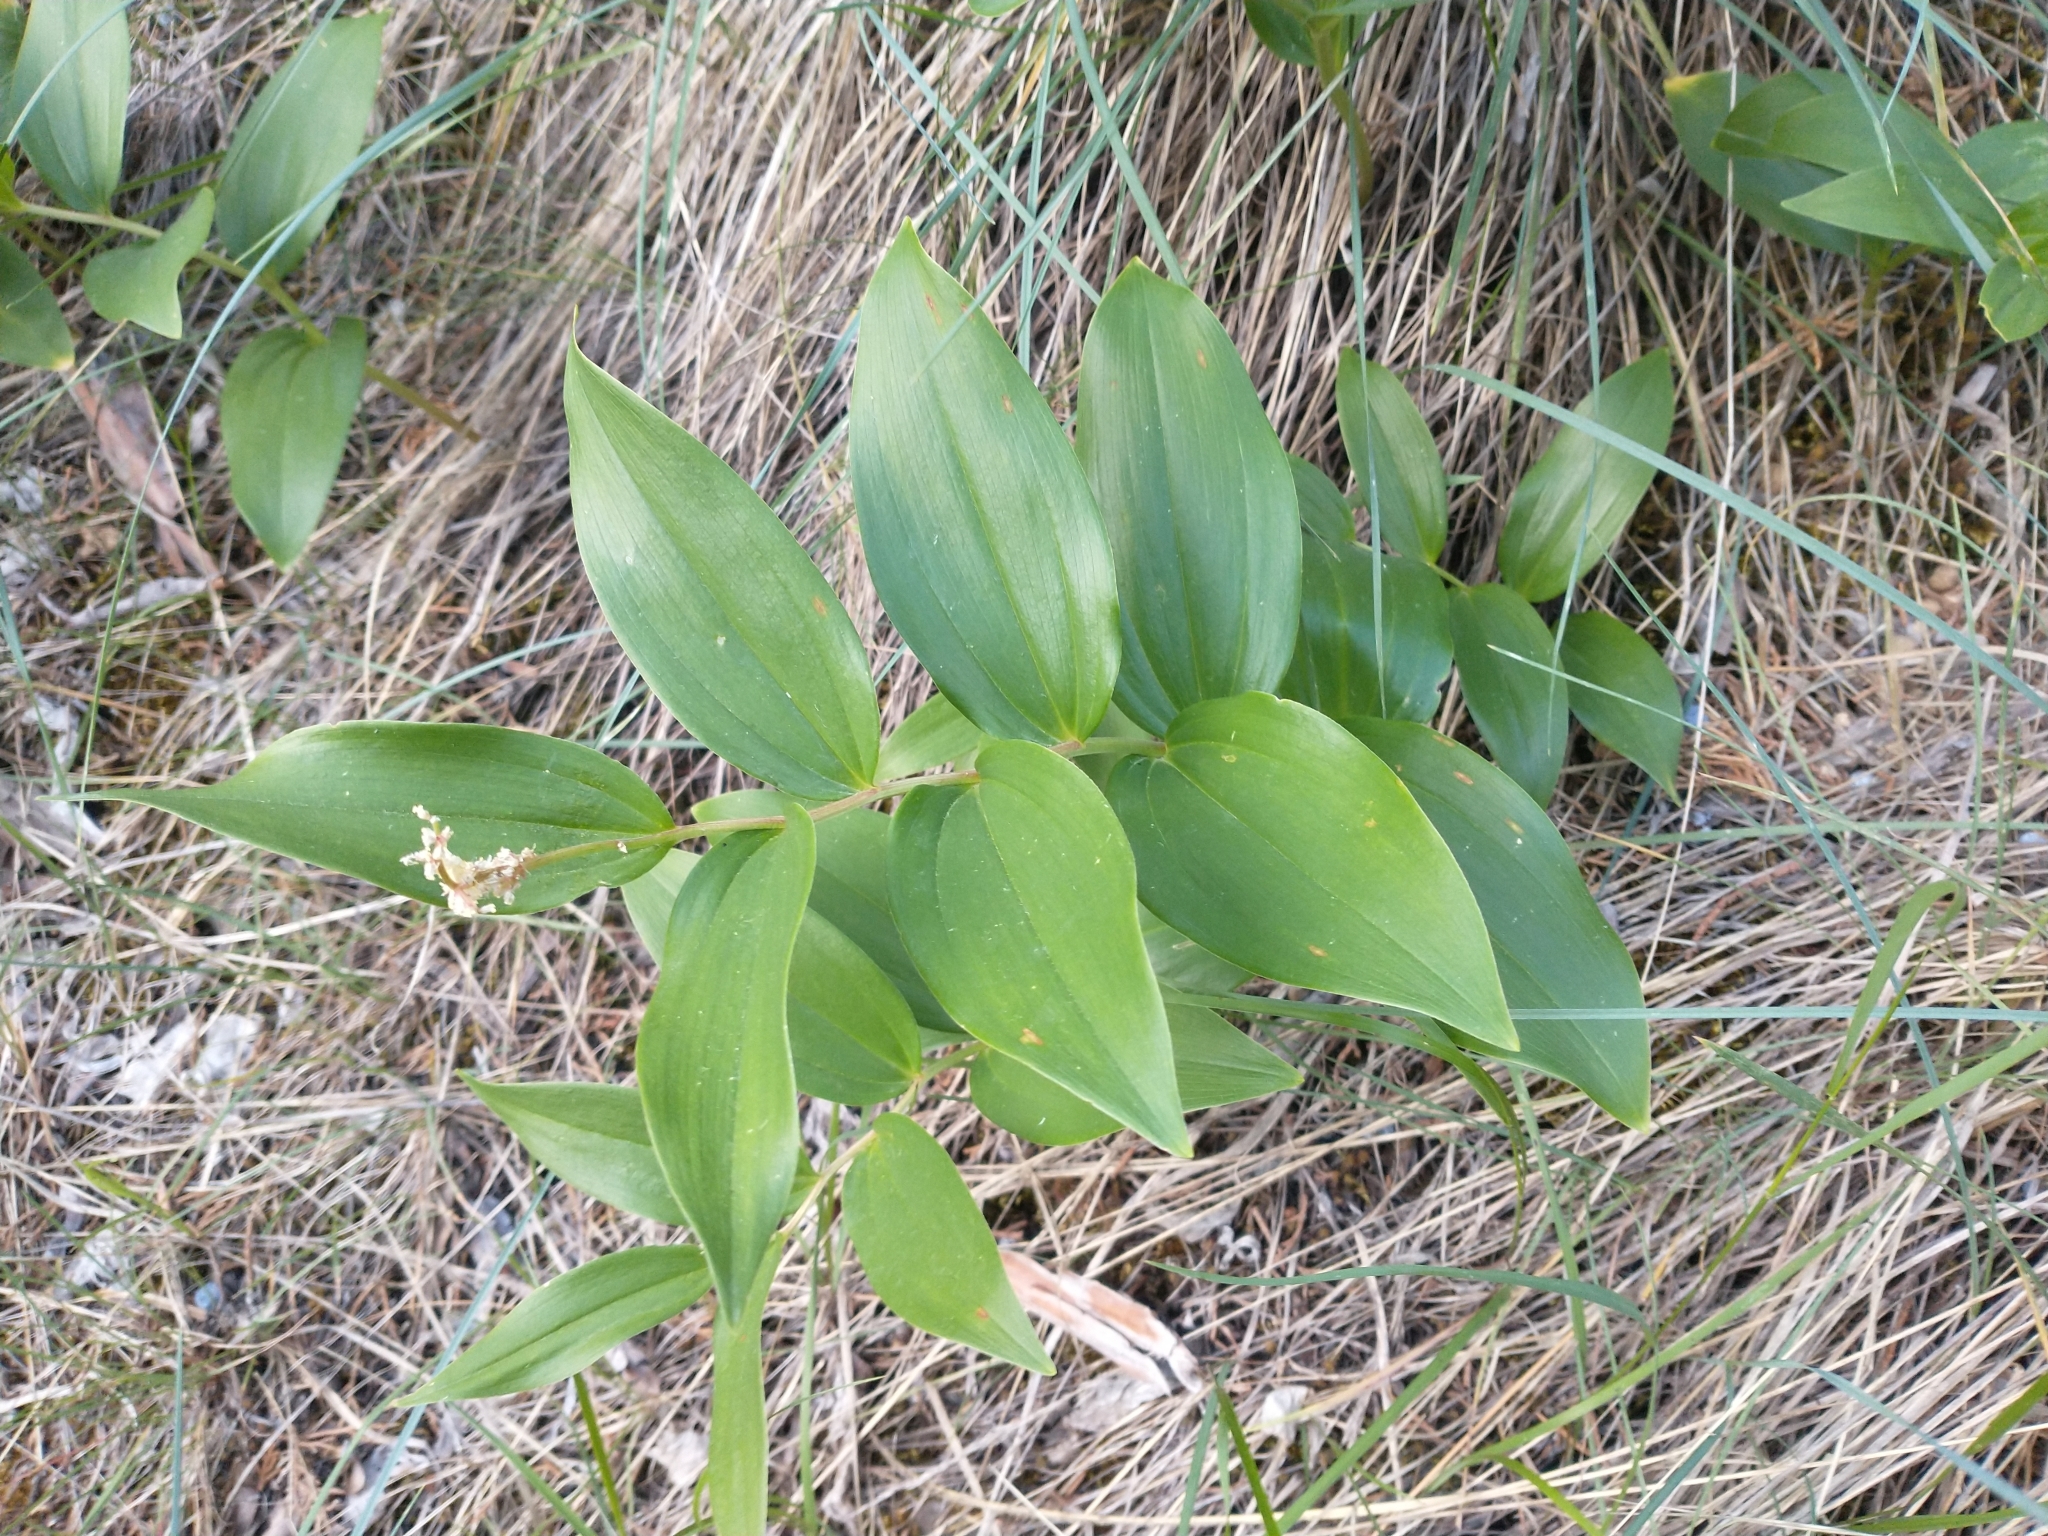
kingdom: Plantae
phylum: Tracheophyta
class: Liliopsida
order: Asparagales
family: Asparagaceae
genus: Maianthemum
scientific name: Maianthemum racemosum
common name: False spikenard
